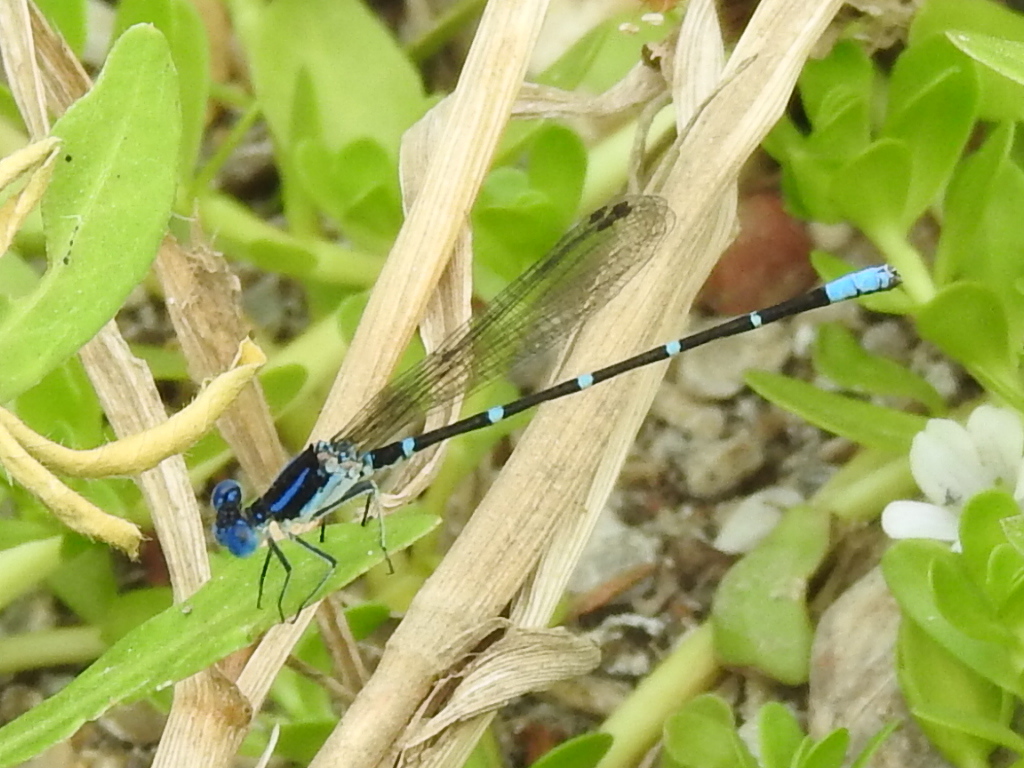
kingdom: Animalia
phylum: Arthropoda
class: Insecta
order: Odonata
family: Coenagrionidae
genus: Argia
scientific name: Argia sedula
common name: Blue-ringed dancer
